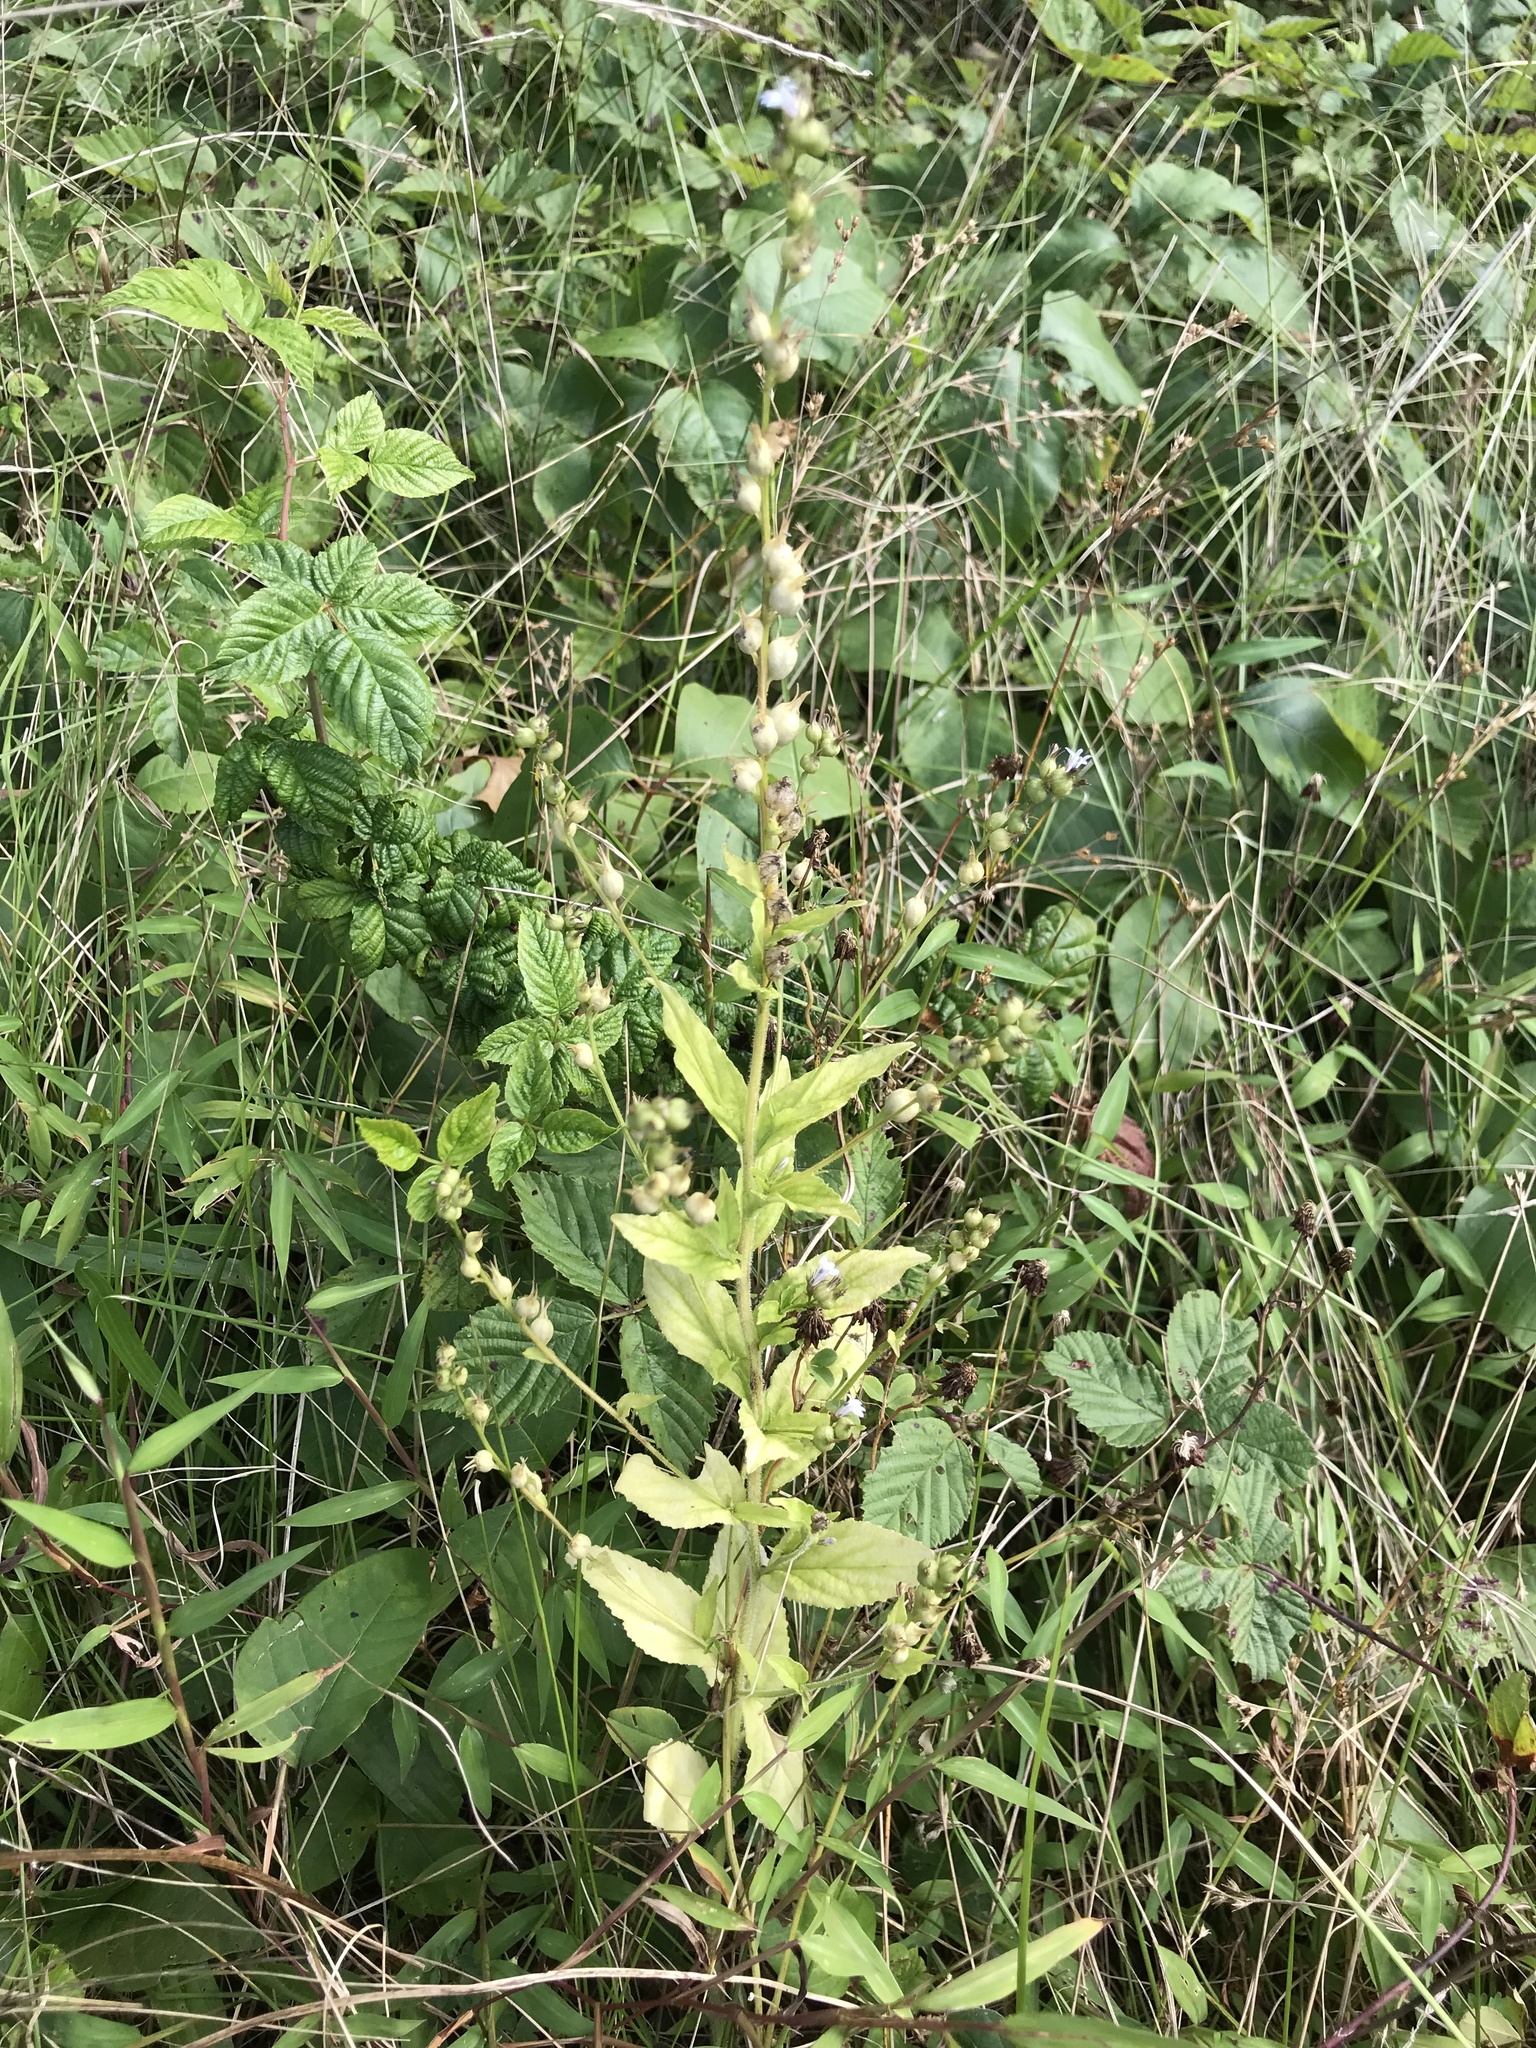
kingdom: Plantae
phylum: Tracheophyta
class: Magnoliopsida
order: Asterales
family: Campanulaceae
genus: Lobelia
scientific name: Lobelia inflata
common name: Indian tobacco
